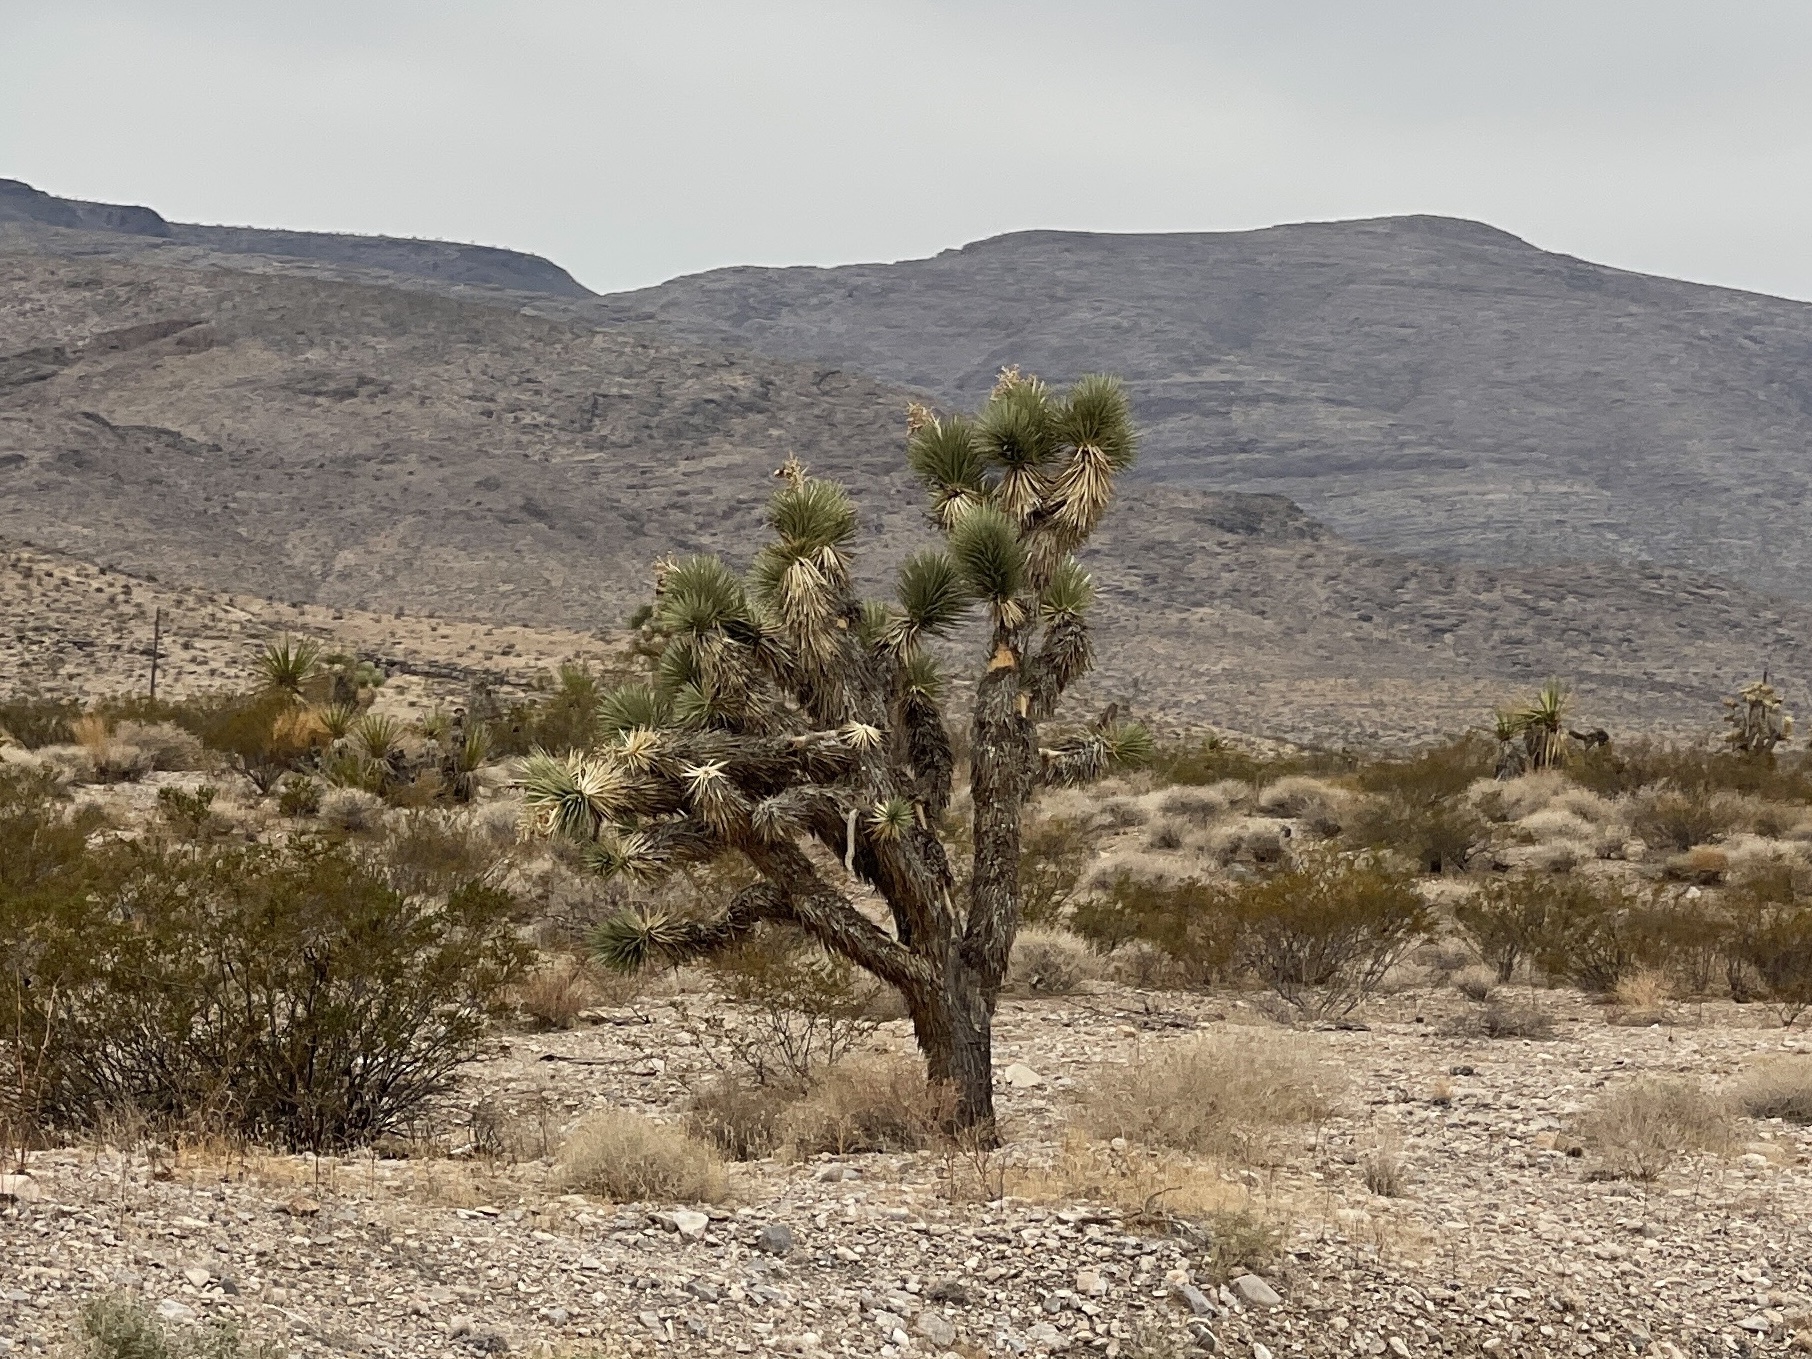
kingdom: Plantae
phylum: Tracheophyta
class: Liliopsida
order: Asparagales
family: Asparagaceae
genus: Yucca
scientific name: Yucca brevifolia
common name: Joshua tree
